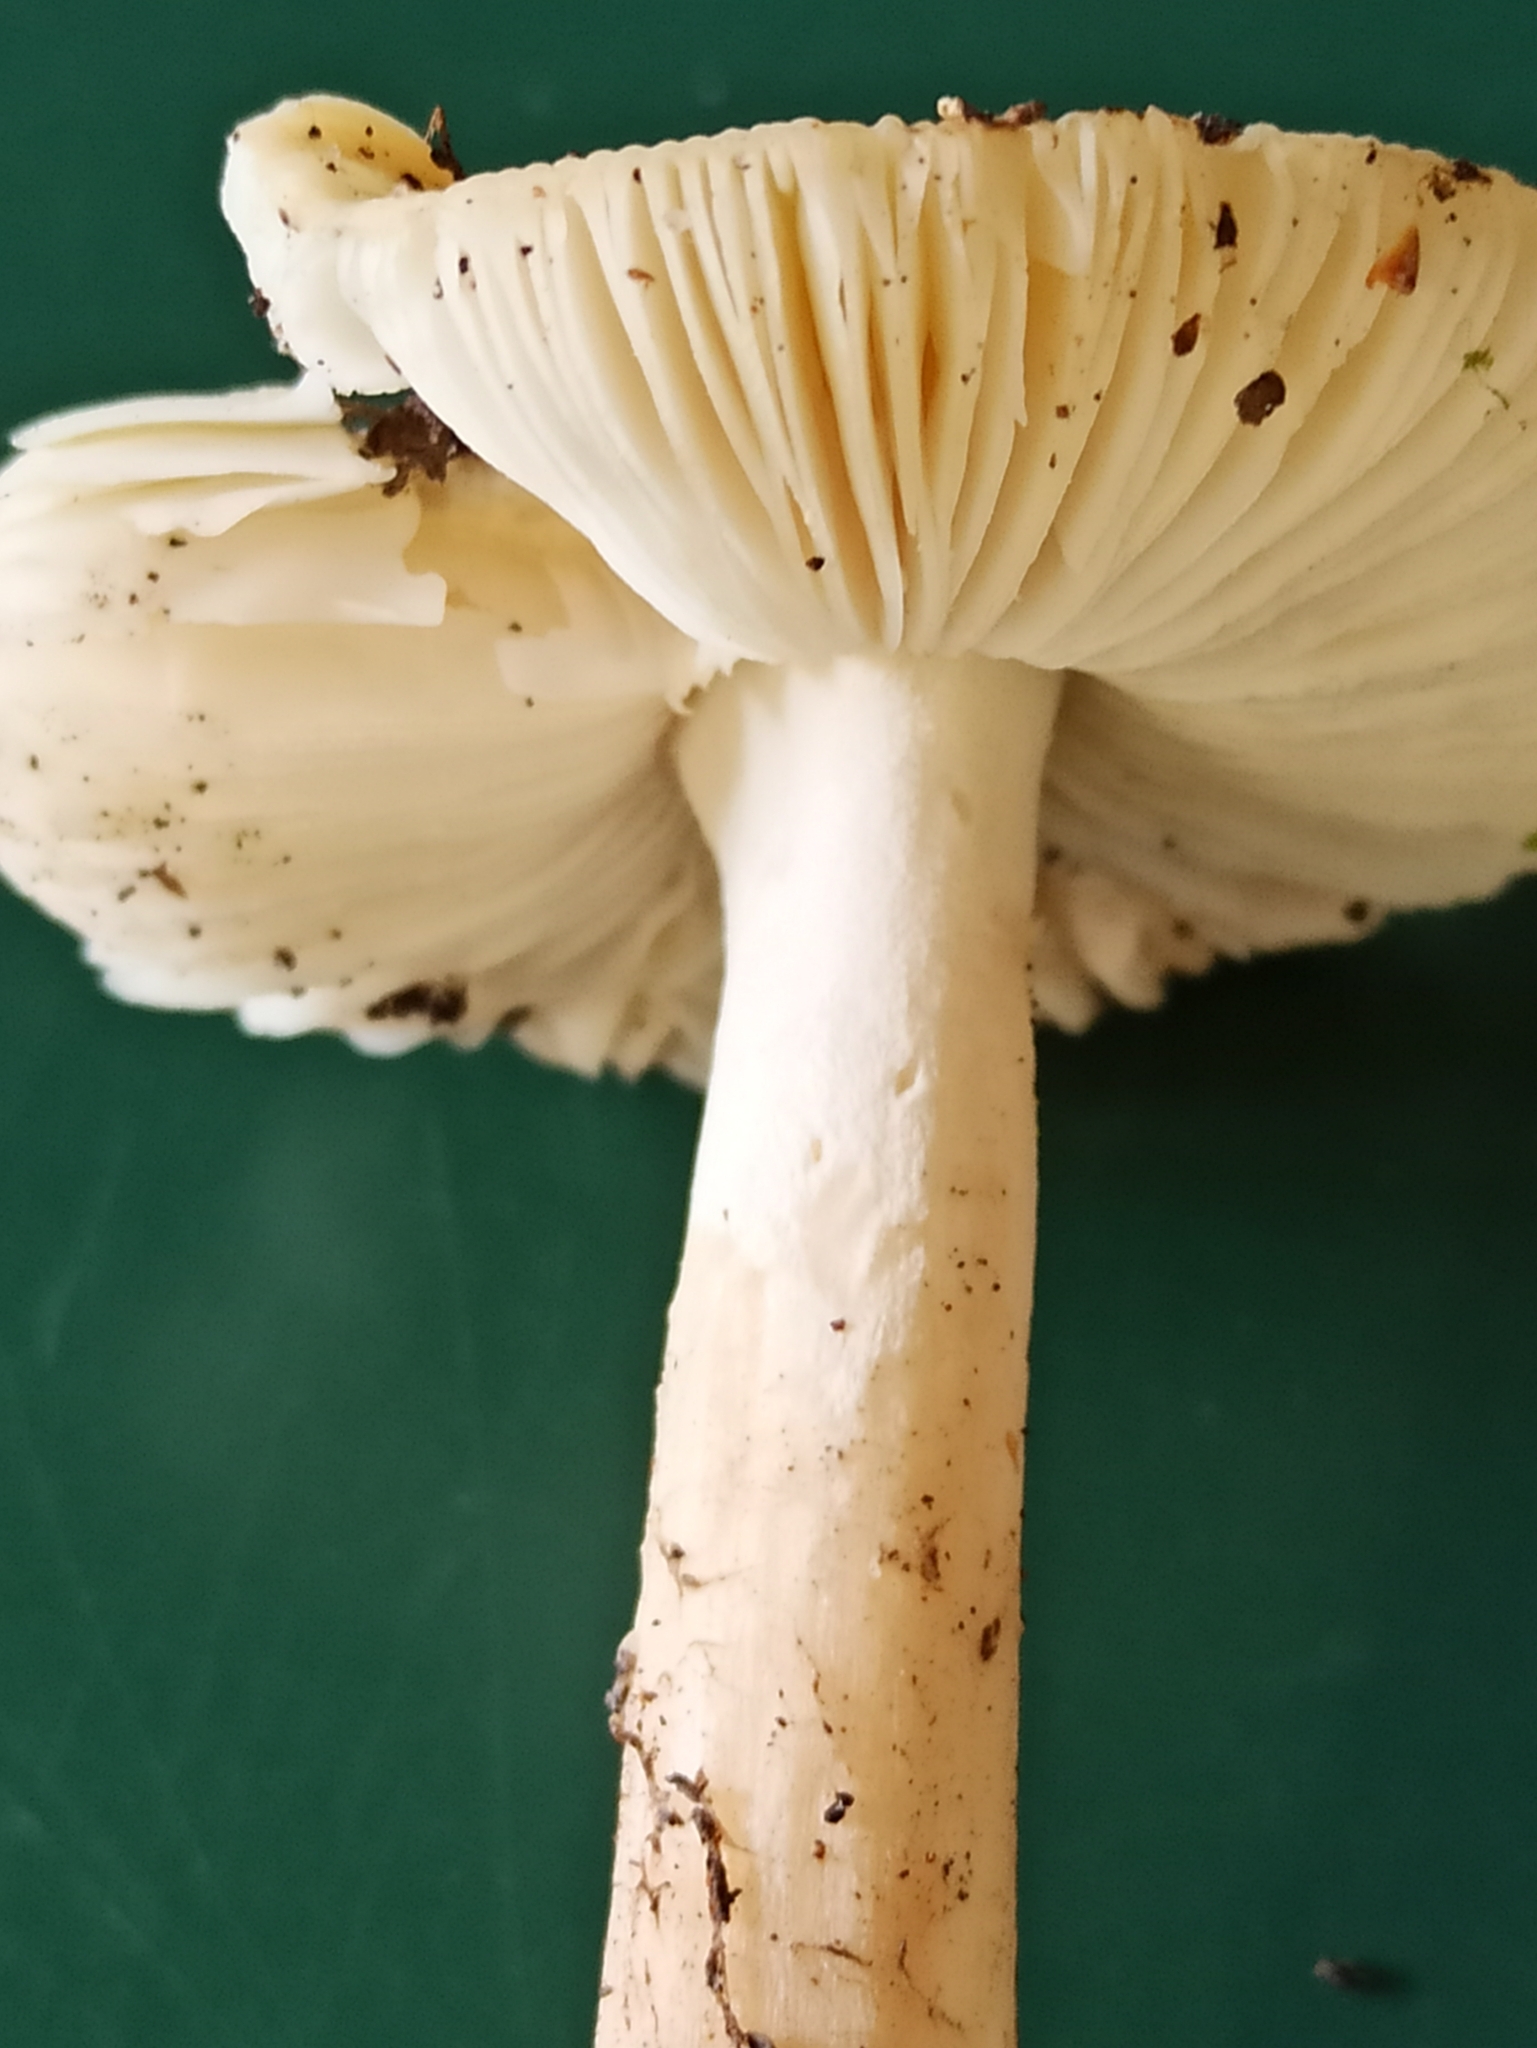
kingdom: Fungi
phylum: Basidiomycota
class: Agaricomycetes
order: Agaricales
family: Amanitaceae
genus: Amanita
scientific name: Amanita gemmata
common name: Jewelled amanita
